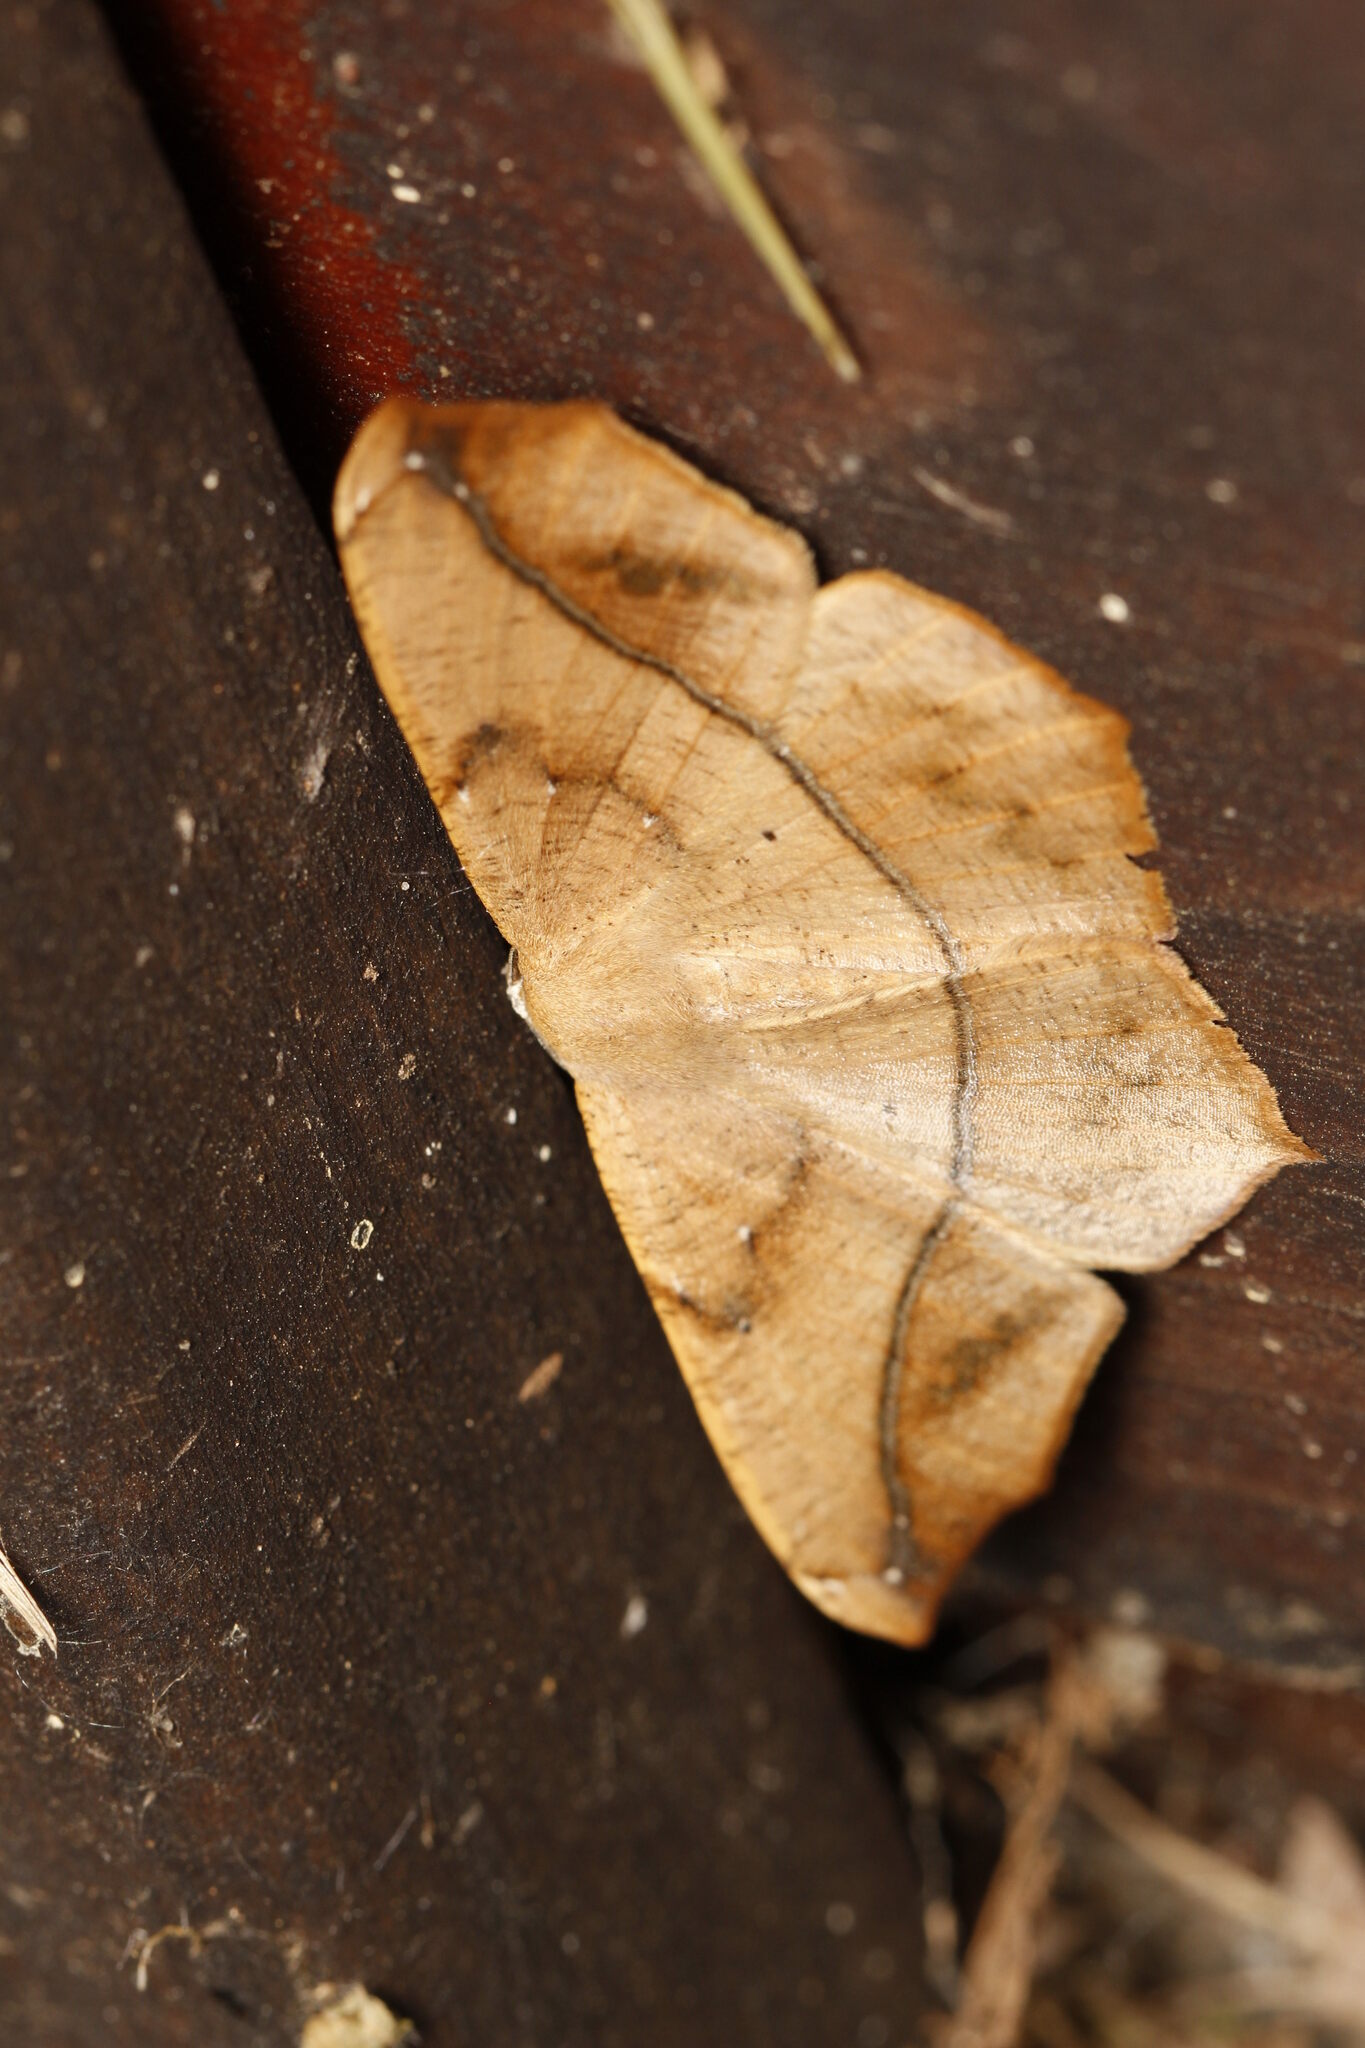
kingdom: Animalia
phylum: Arthropoda
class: Insecta
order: Lepidoptera
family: Geometridae
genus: Prochoerodes
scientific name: Prochoerodes lineola
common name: Large maple spanworm
